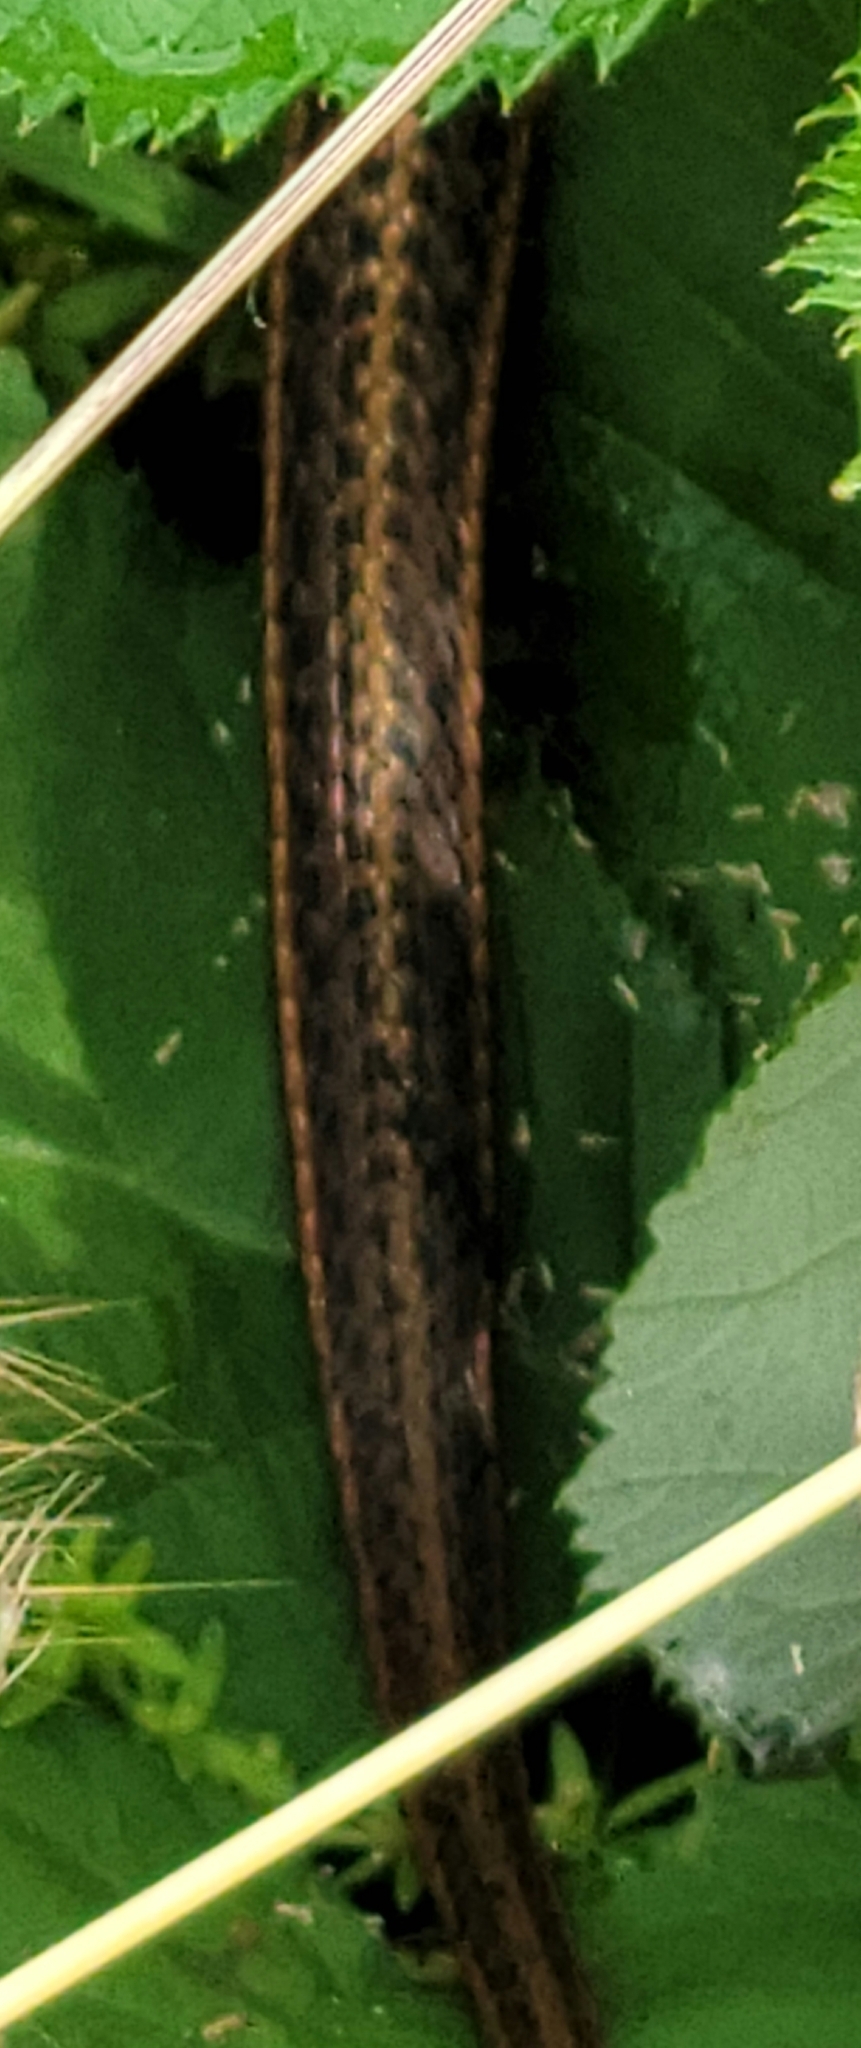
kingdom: Animalia
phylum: Chordata
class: Squamata
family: Colubridae
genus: Thamnophis
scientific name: Thamnophis ordinoides
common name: Northwestern garter snake
